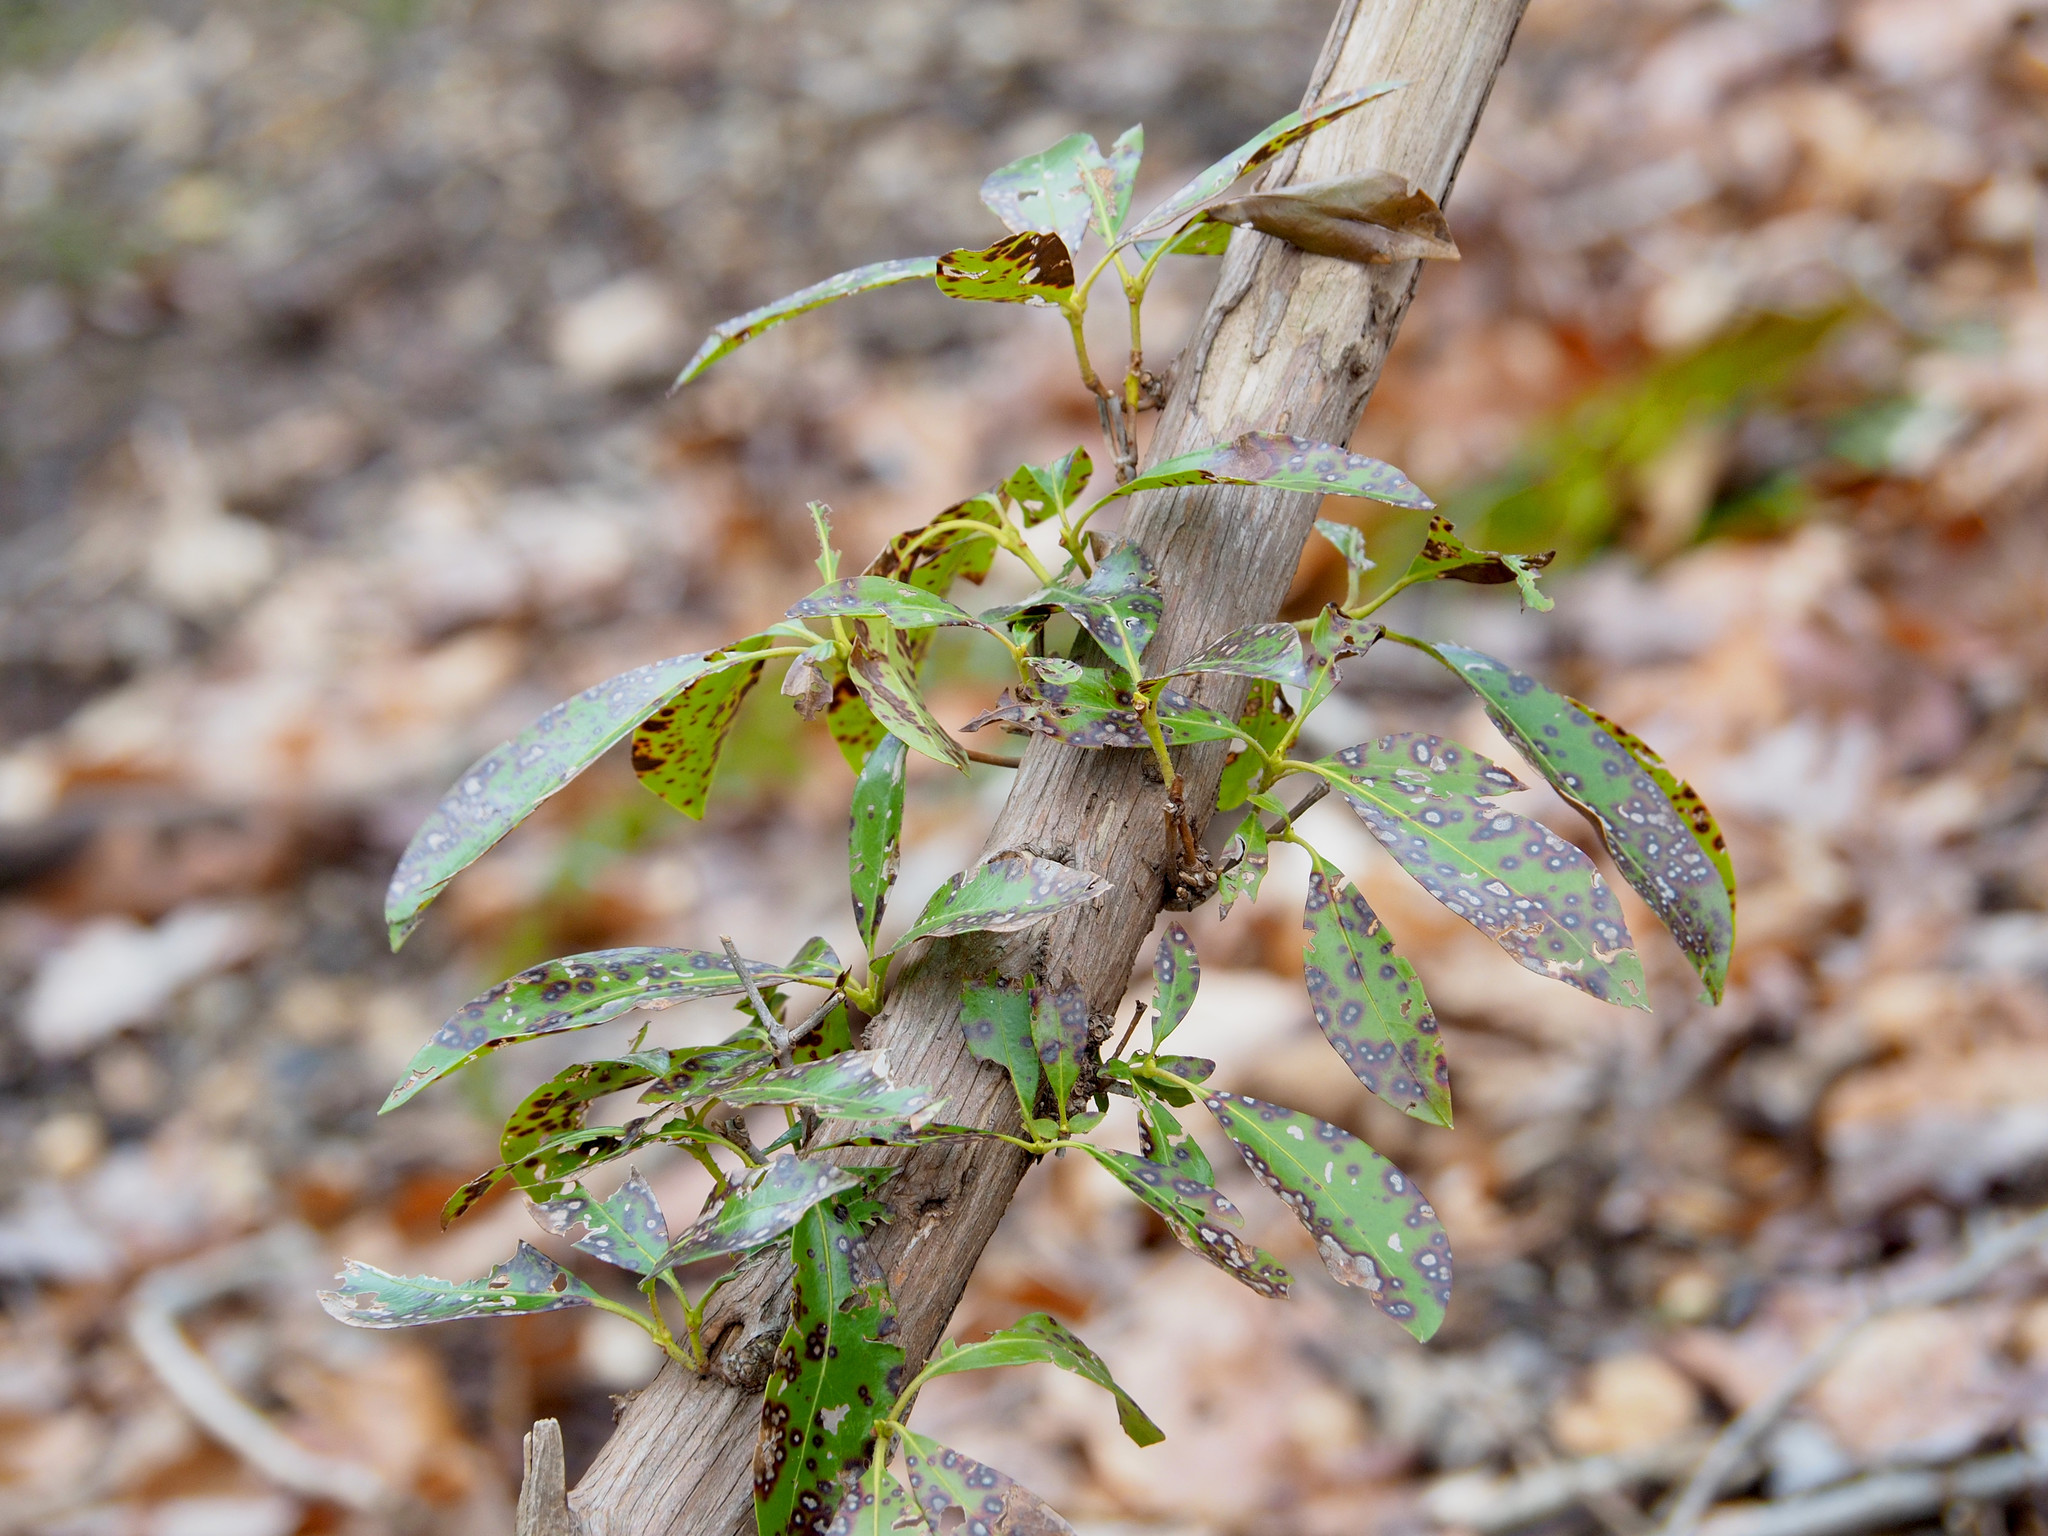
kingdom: Fungi
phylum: Ascomycota
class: Dothideomycetes
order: Mycosphaerellales
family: Mycosphaerellaceae
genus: Mycosphaerella
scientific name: Mycosphaerella colorata
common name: Mountain laurel leaf spot
